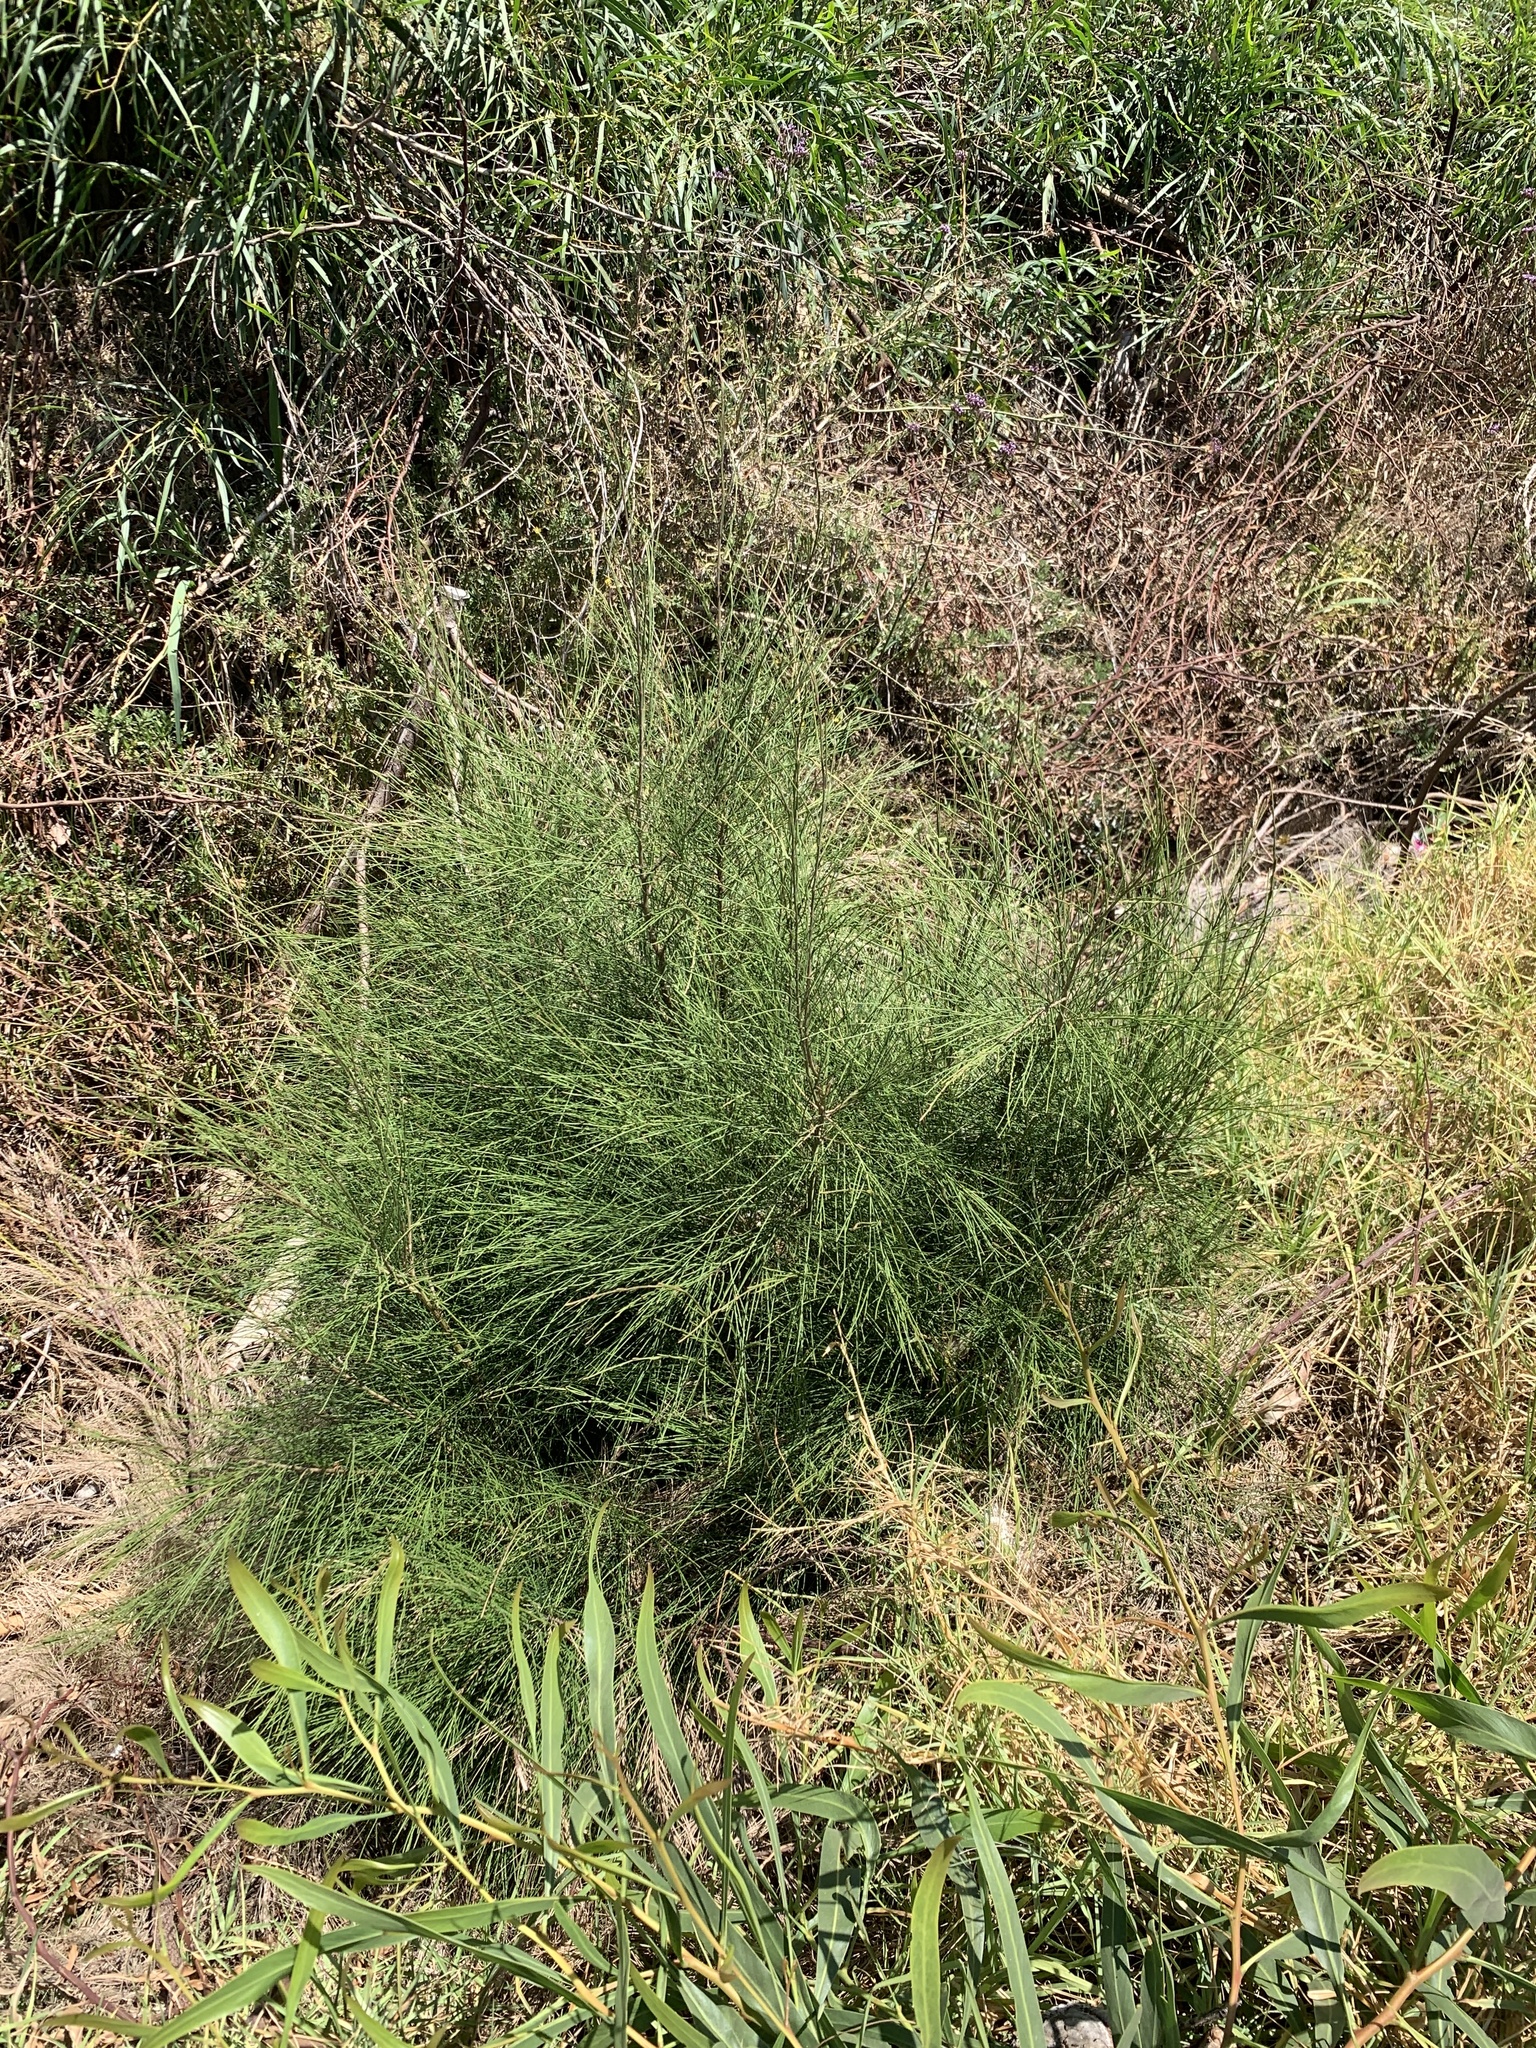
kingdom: Plantae
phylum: Tracheophyta
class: Magnoliopsida
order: Fagales
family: Casuarinaceae
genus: Casuarina
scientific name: Casuarina cunninghamiana
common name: River sheoak
